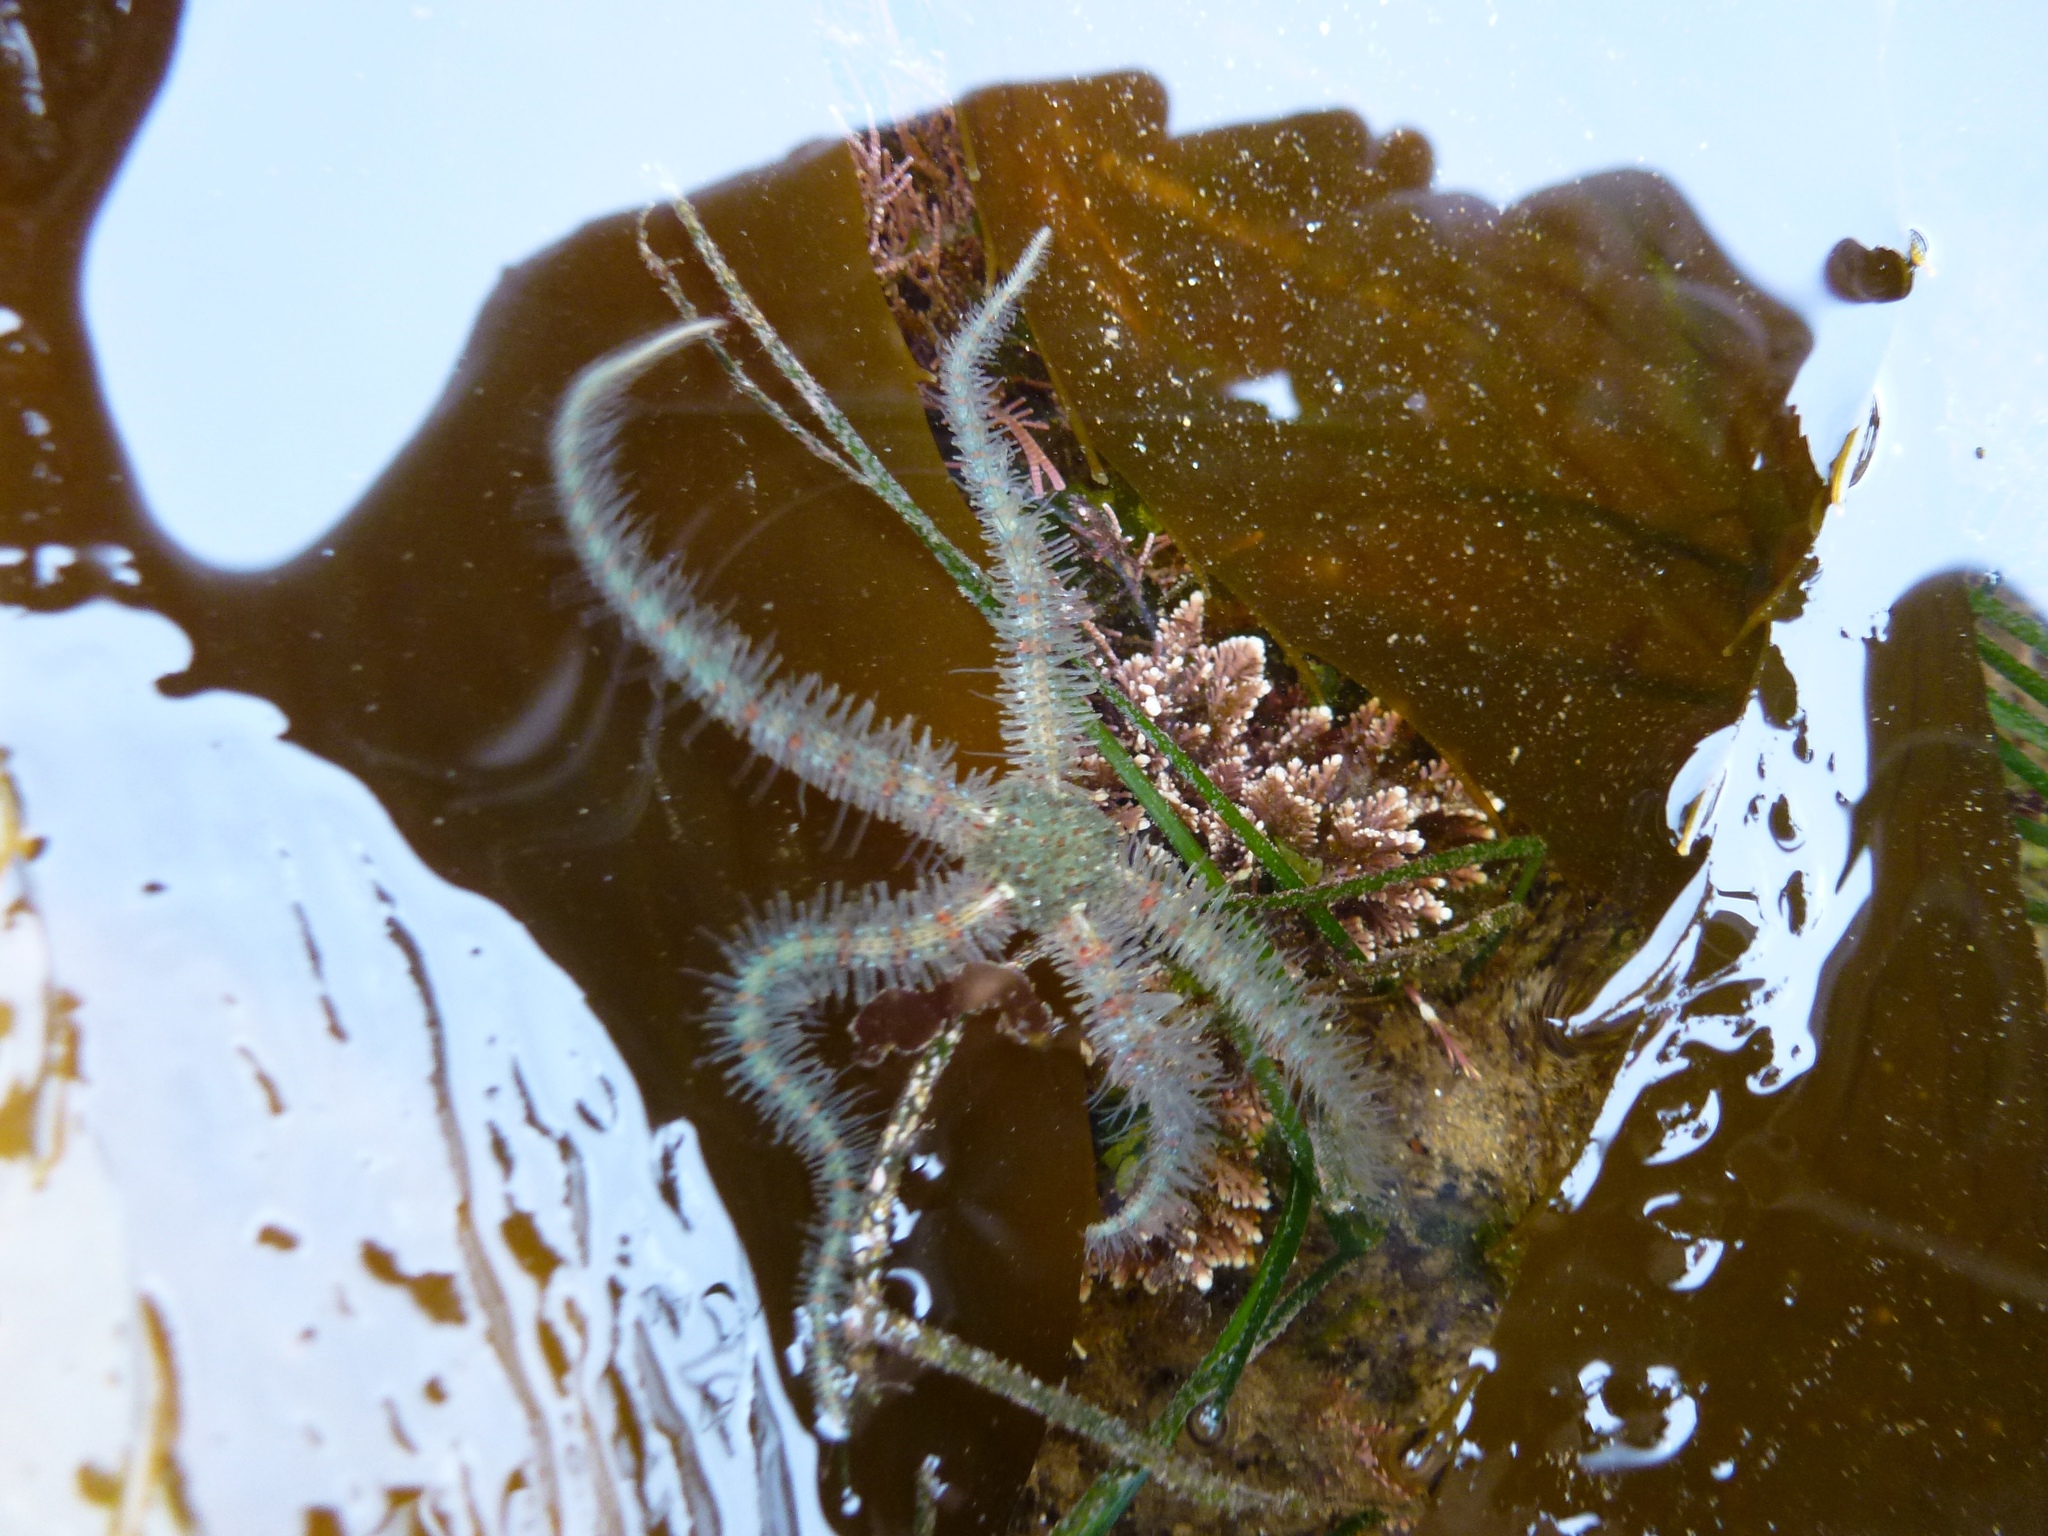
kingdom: Animalia
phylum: Echinodermata
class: Ophiuroidea
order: Amphilepidida
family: Ophiotrichidae
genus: Ophiothrix
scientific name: Ophiothrix spiculata
